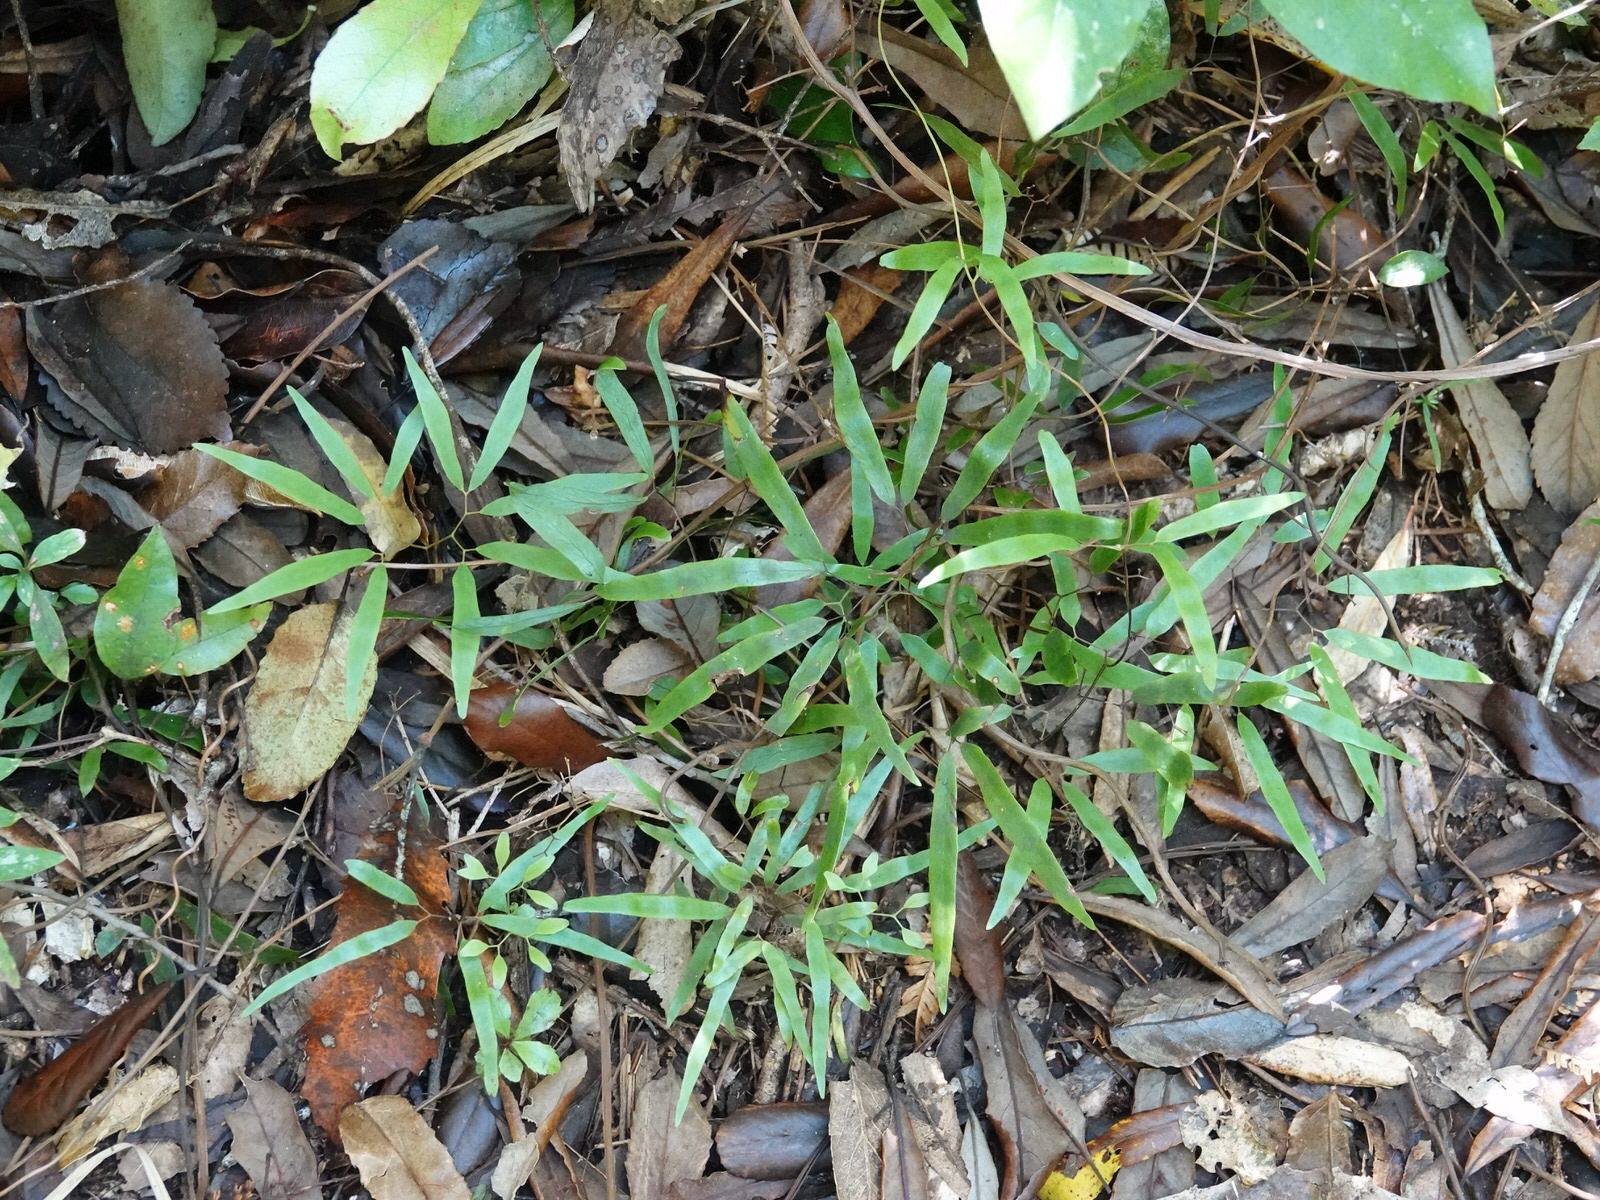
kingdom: Plantae
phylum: Tracheophyta
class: Polypodiopsida
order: Schizaeales
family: Lygodiaceae
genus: Lygodium
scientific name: Lygodium articulatum
